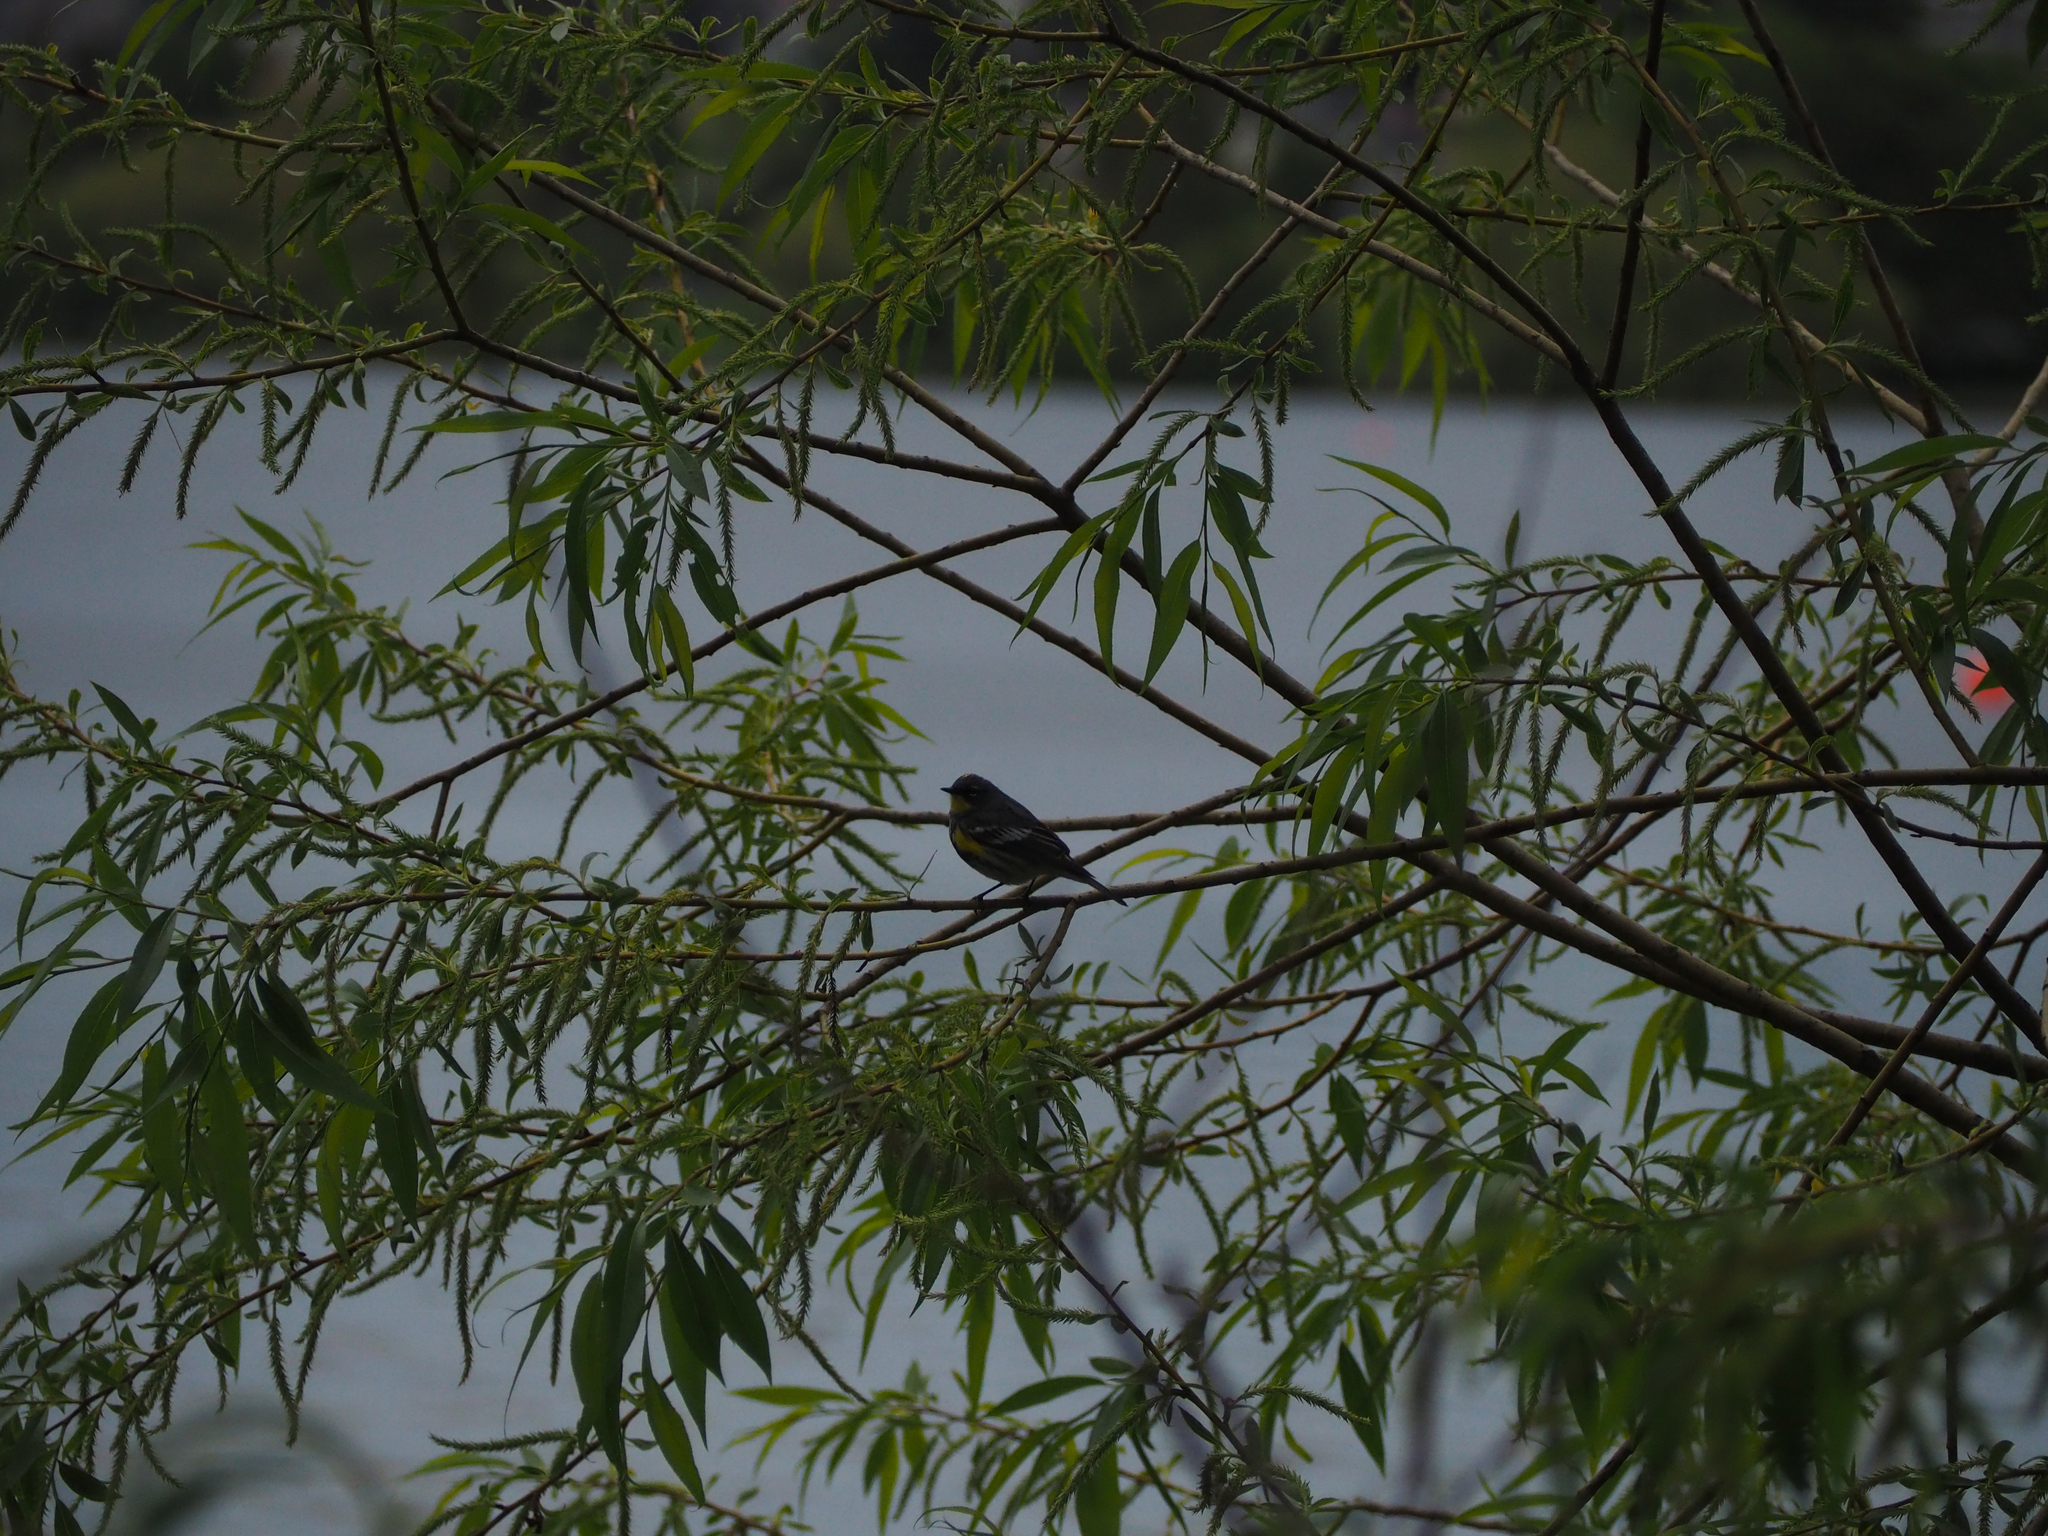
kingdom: Animalia
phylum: Chordata
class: Aves
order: Passeriformes
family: Parulidae
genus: Setophaga
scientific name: Setophaga coronata
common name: Myrtle warbler
